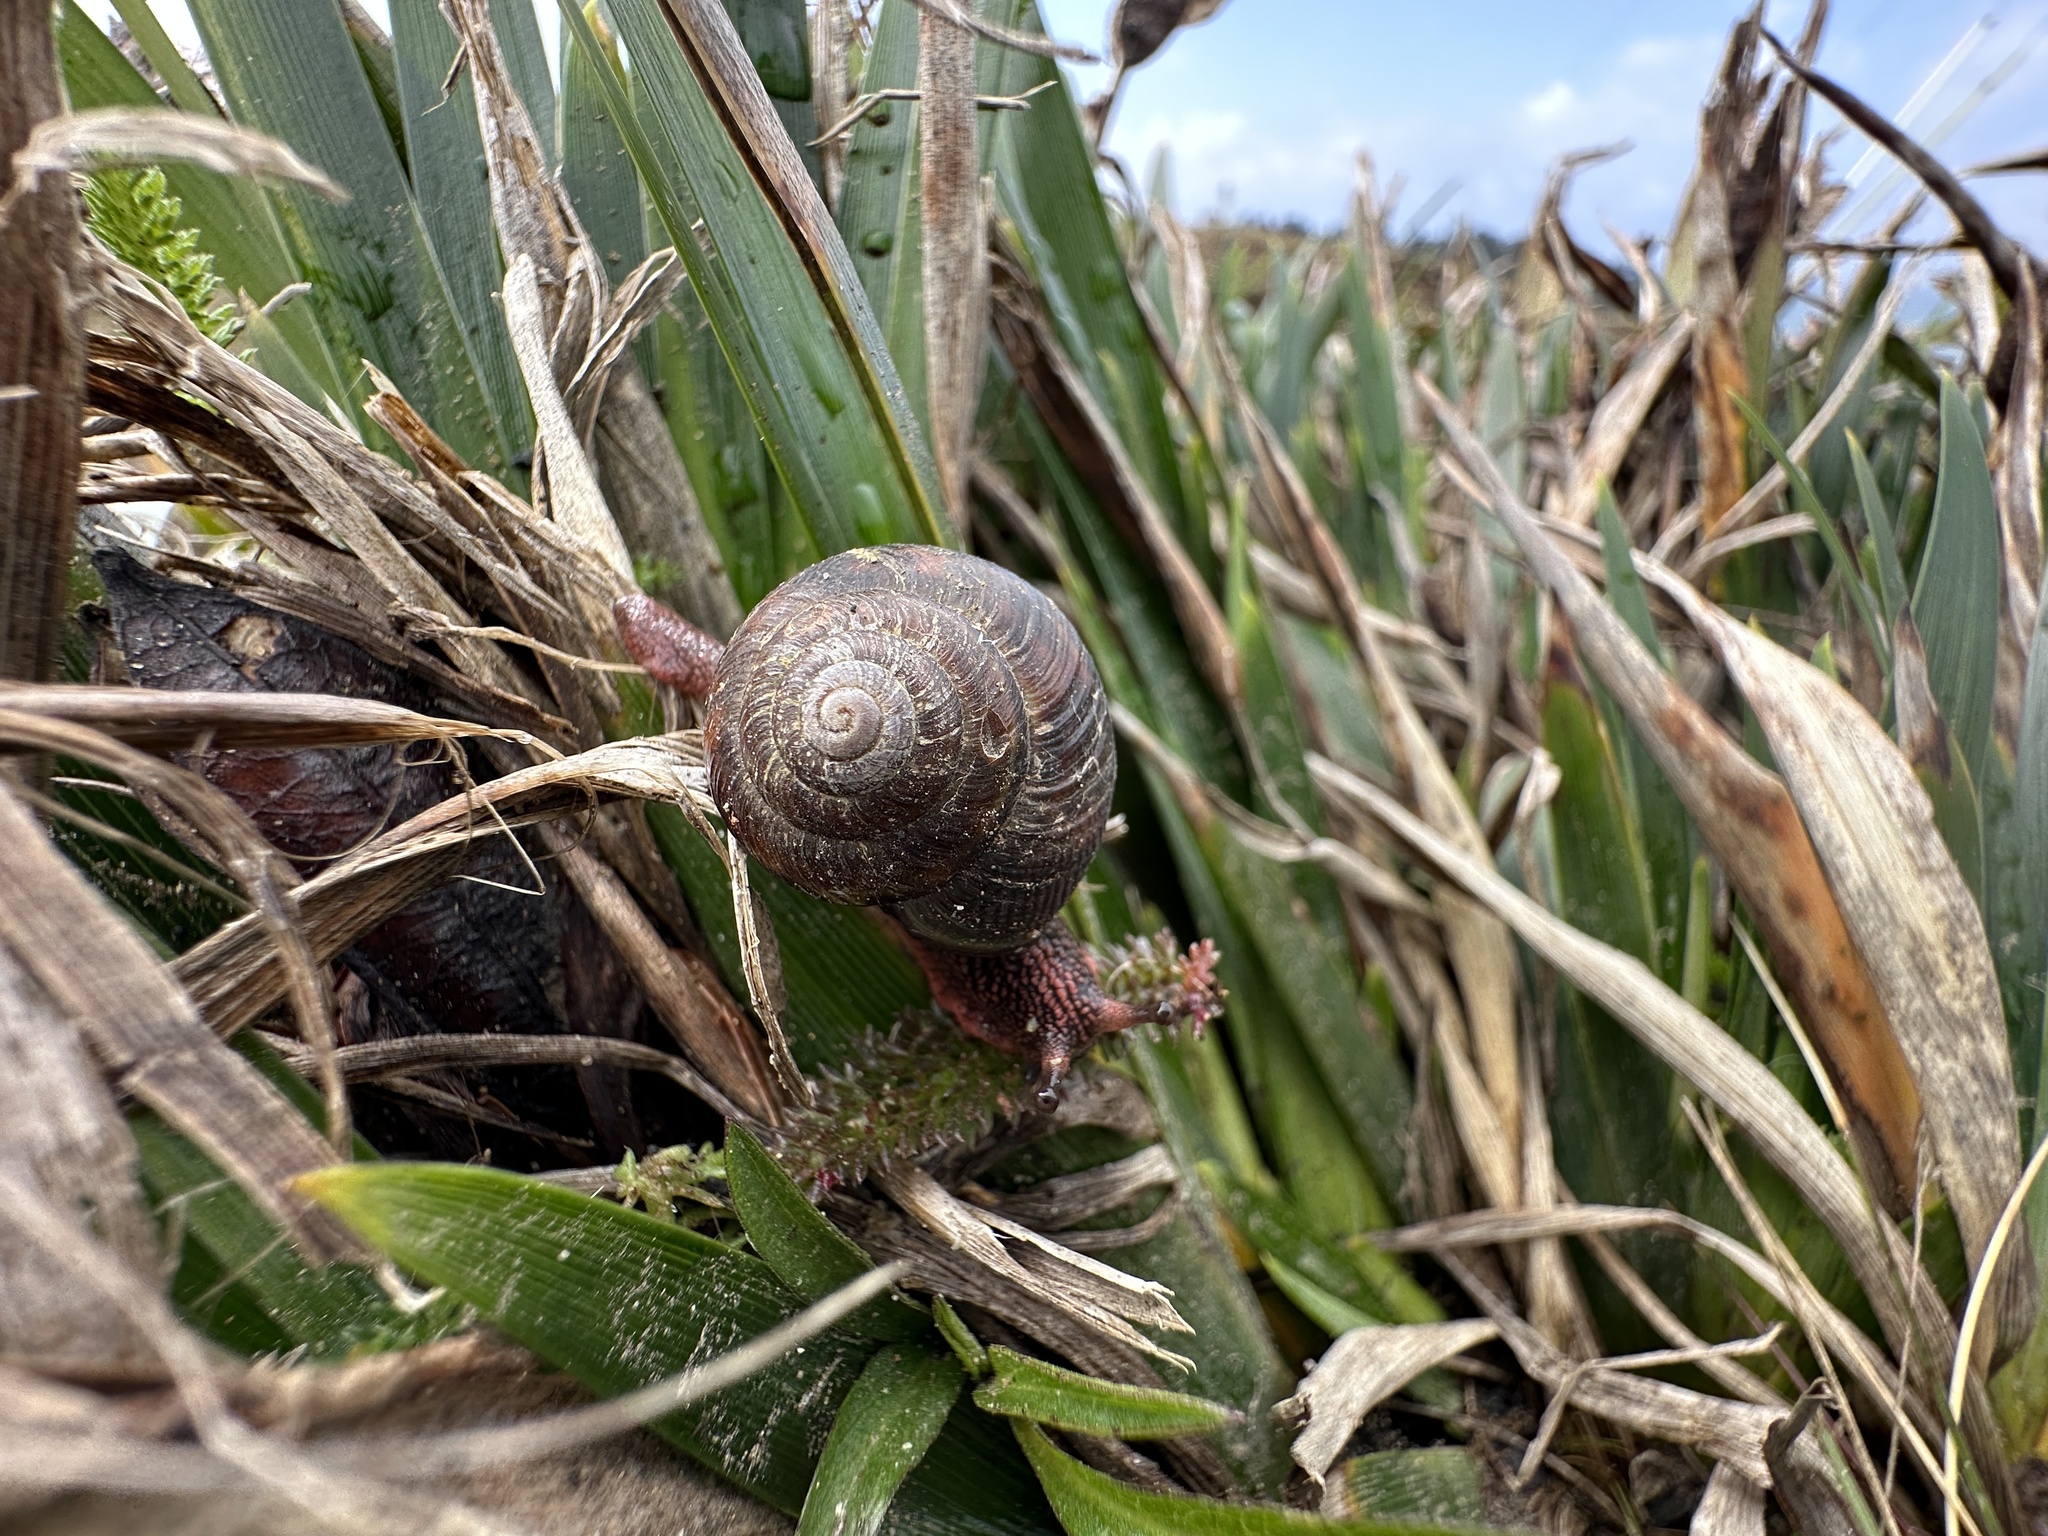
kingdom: Animalia
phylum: Mollusca
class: Gastropoda
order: Stylommatophora
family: Xanthonychidae
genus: Monadenia
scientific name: Monadenia fidelis
